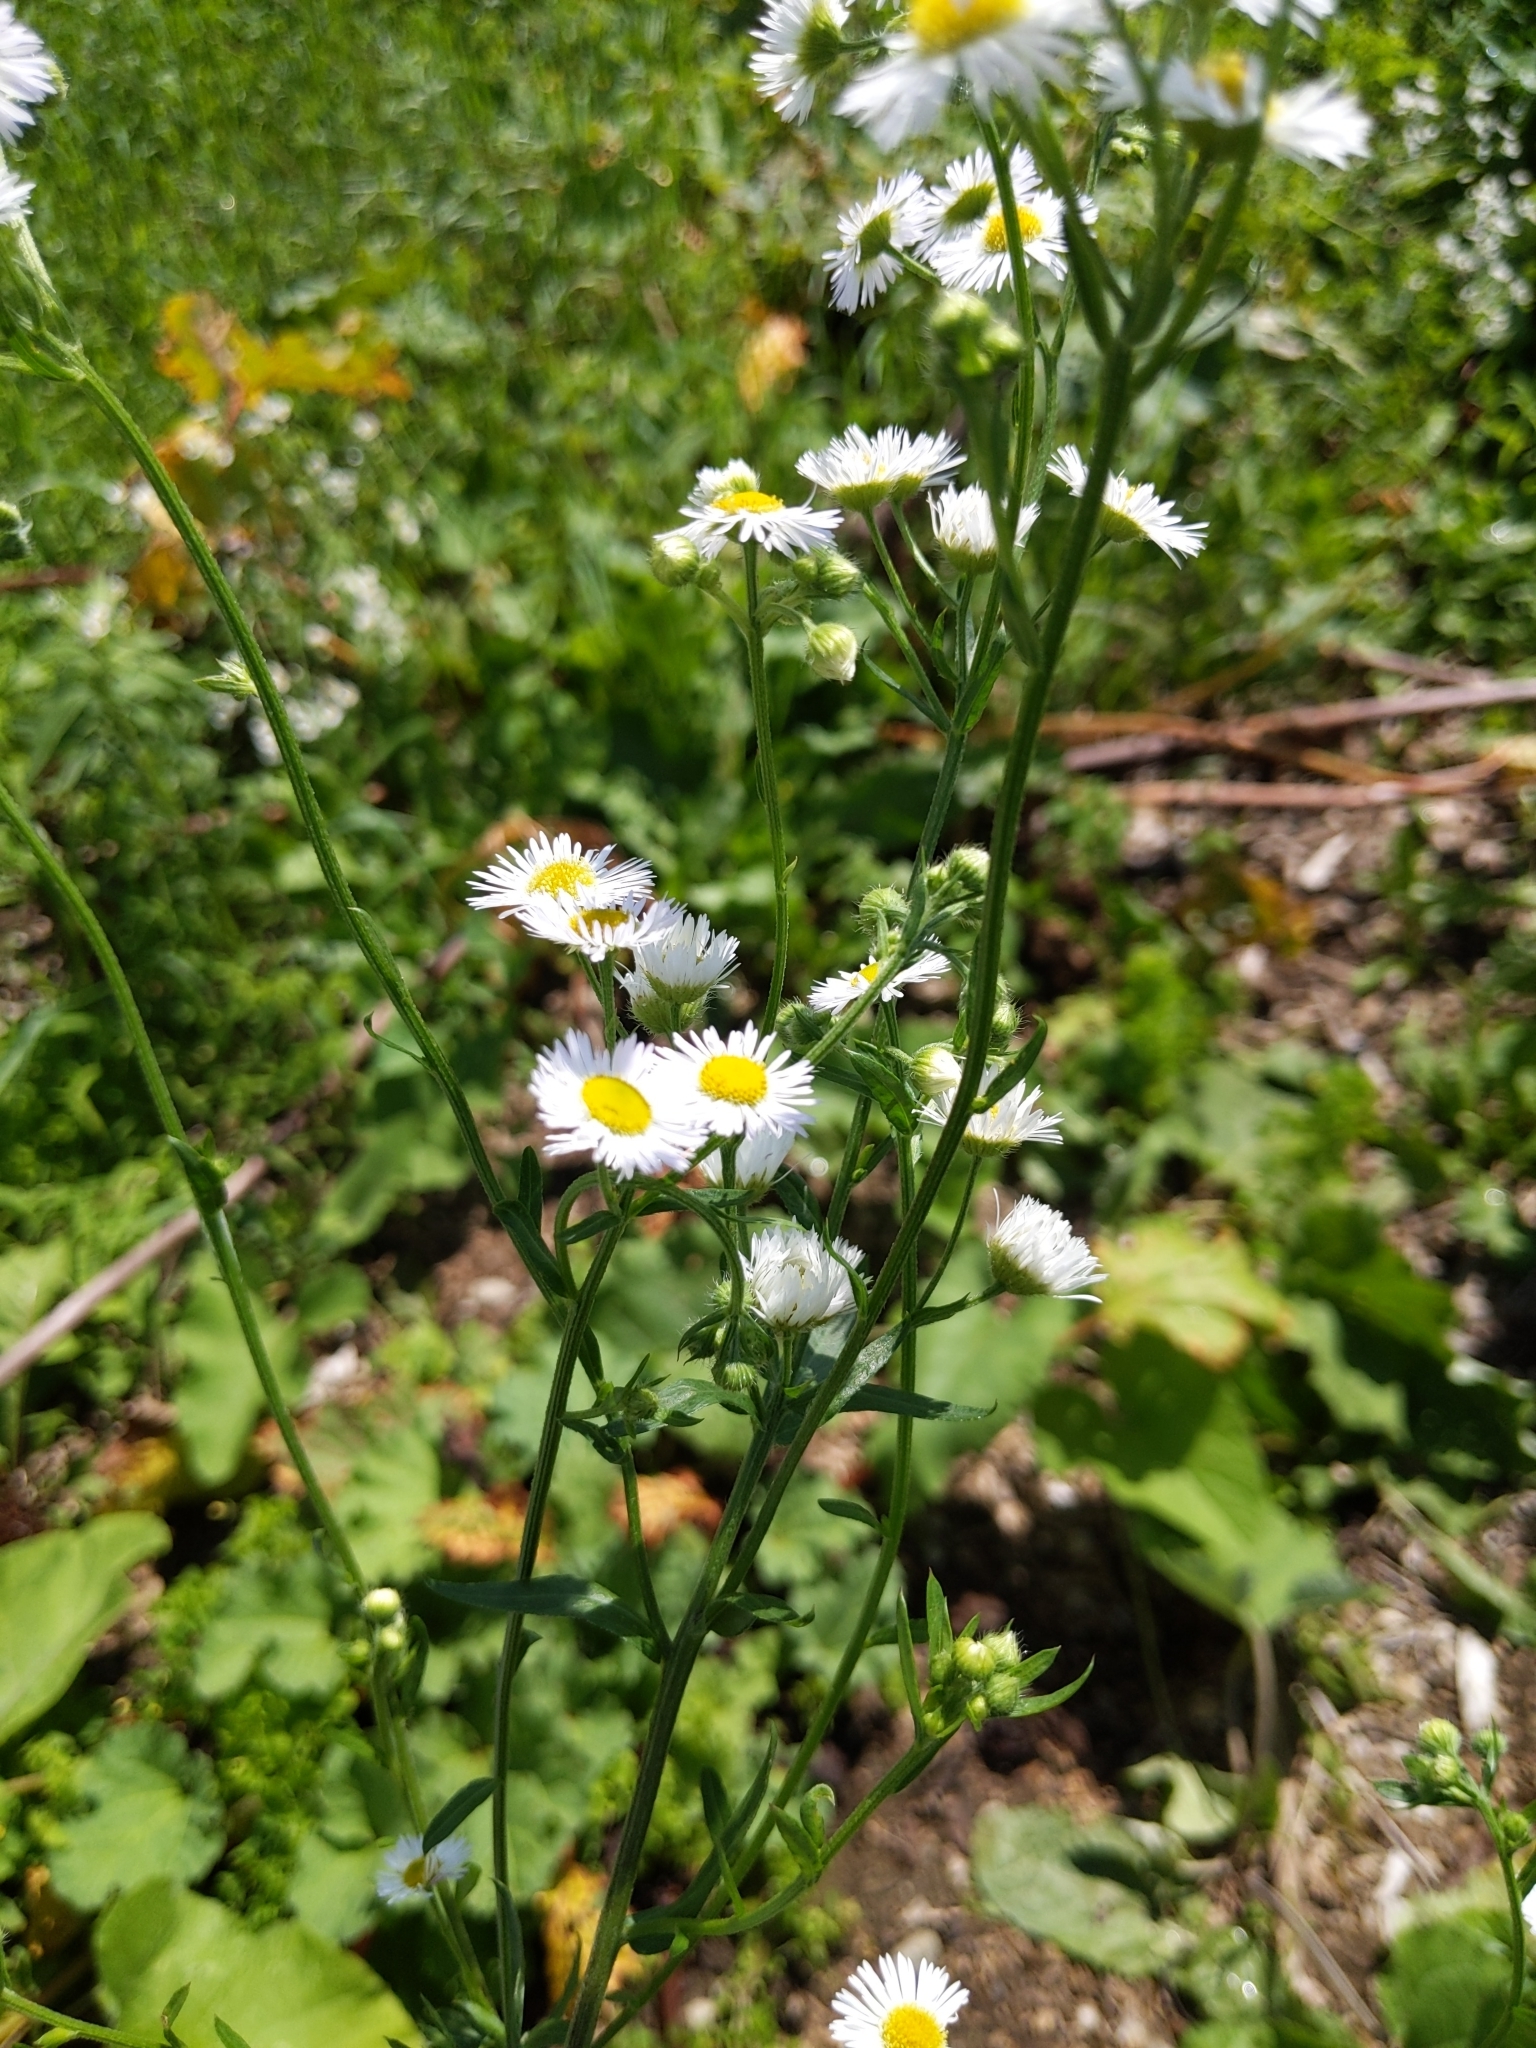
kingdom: Plantae
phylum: Tracheophyta
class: Magnoliopsida
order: Asterales
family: Asteraceae
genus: Erigeron
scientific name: Erigeron strigosus
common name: Common eastern fleabane
